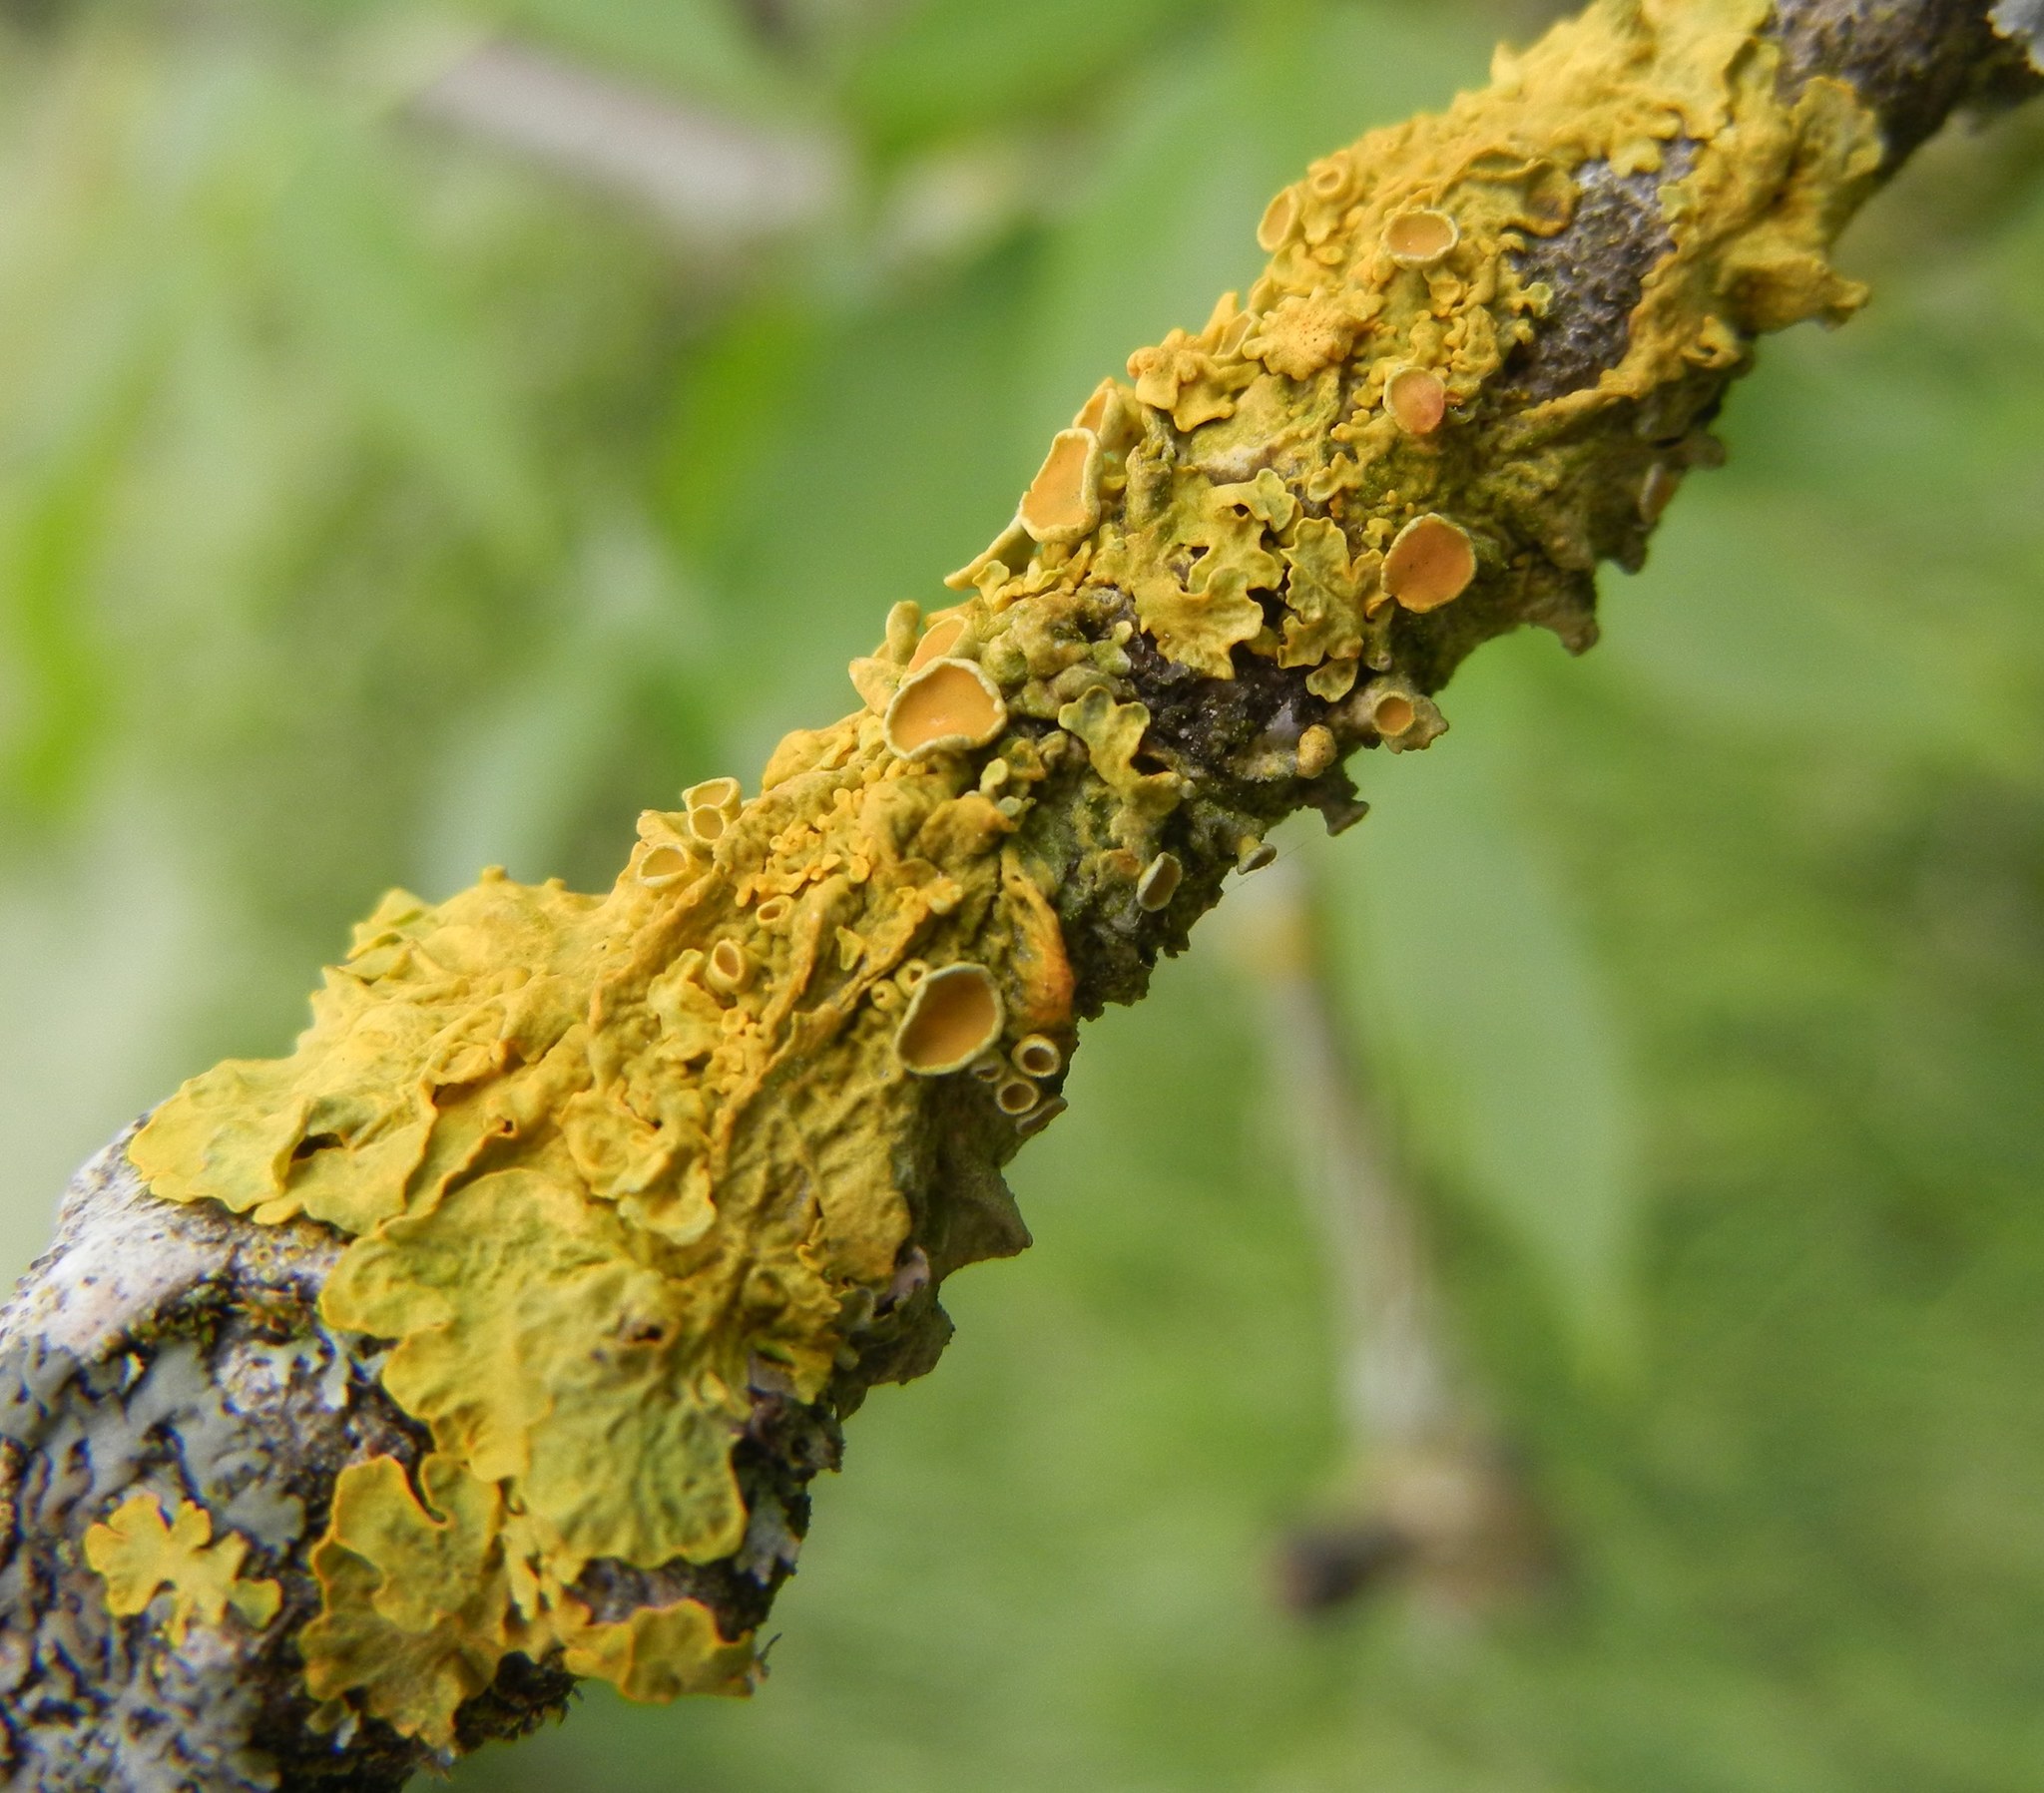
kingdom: Fungi
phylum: Ascomycota
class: Lecanoromycetes
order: Teloschistales
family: Teloschistaceae
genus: Xanthoria
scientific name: Xanthoria parietina
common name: Common orange lichen
